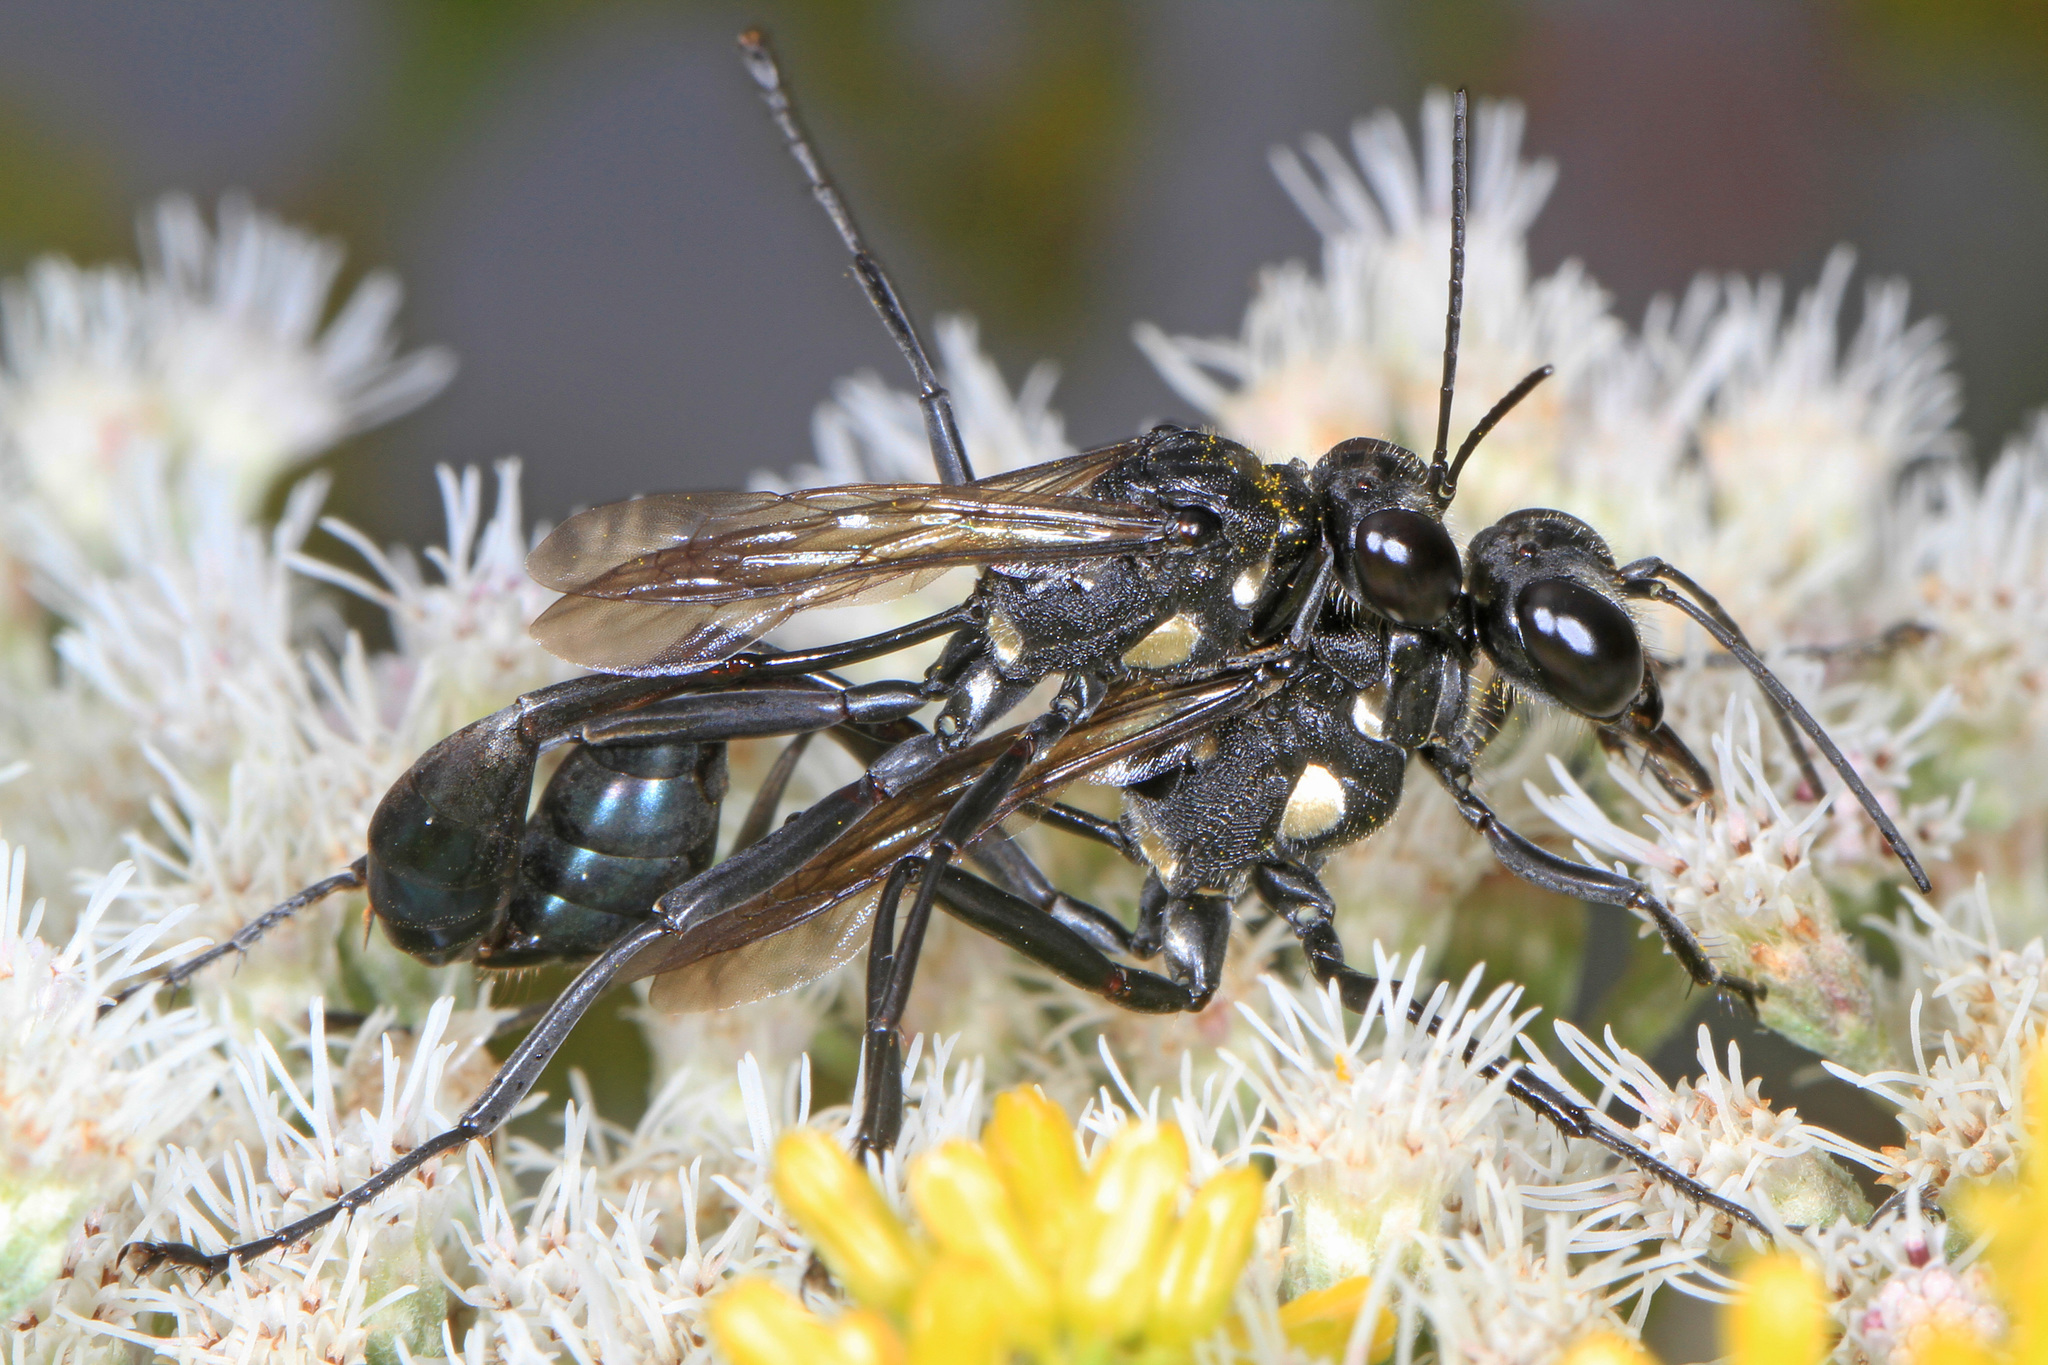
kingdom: Animalia
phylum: Arthropoda
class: Insecta
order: Hymenoptera
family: Sphecidae
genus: Eremnophila
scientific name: Eremnophila aureonotata
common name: Gold-marked thread-waisted wasp
